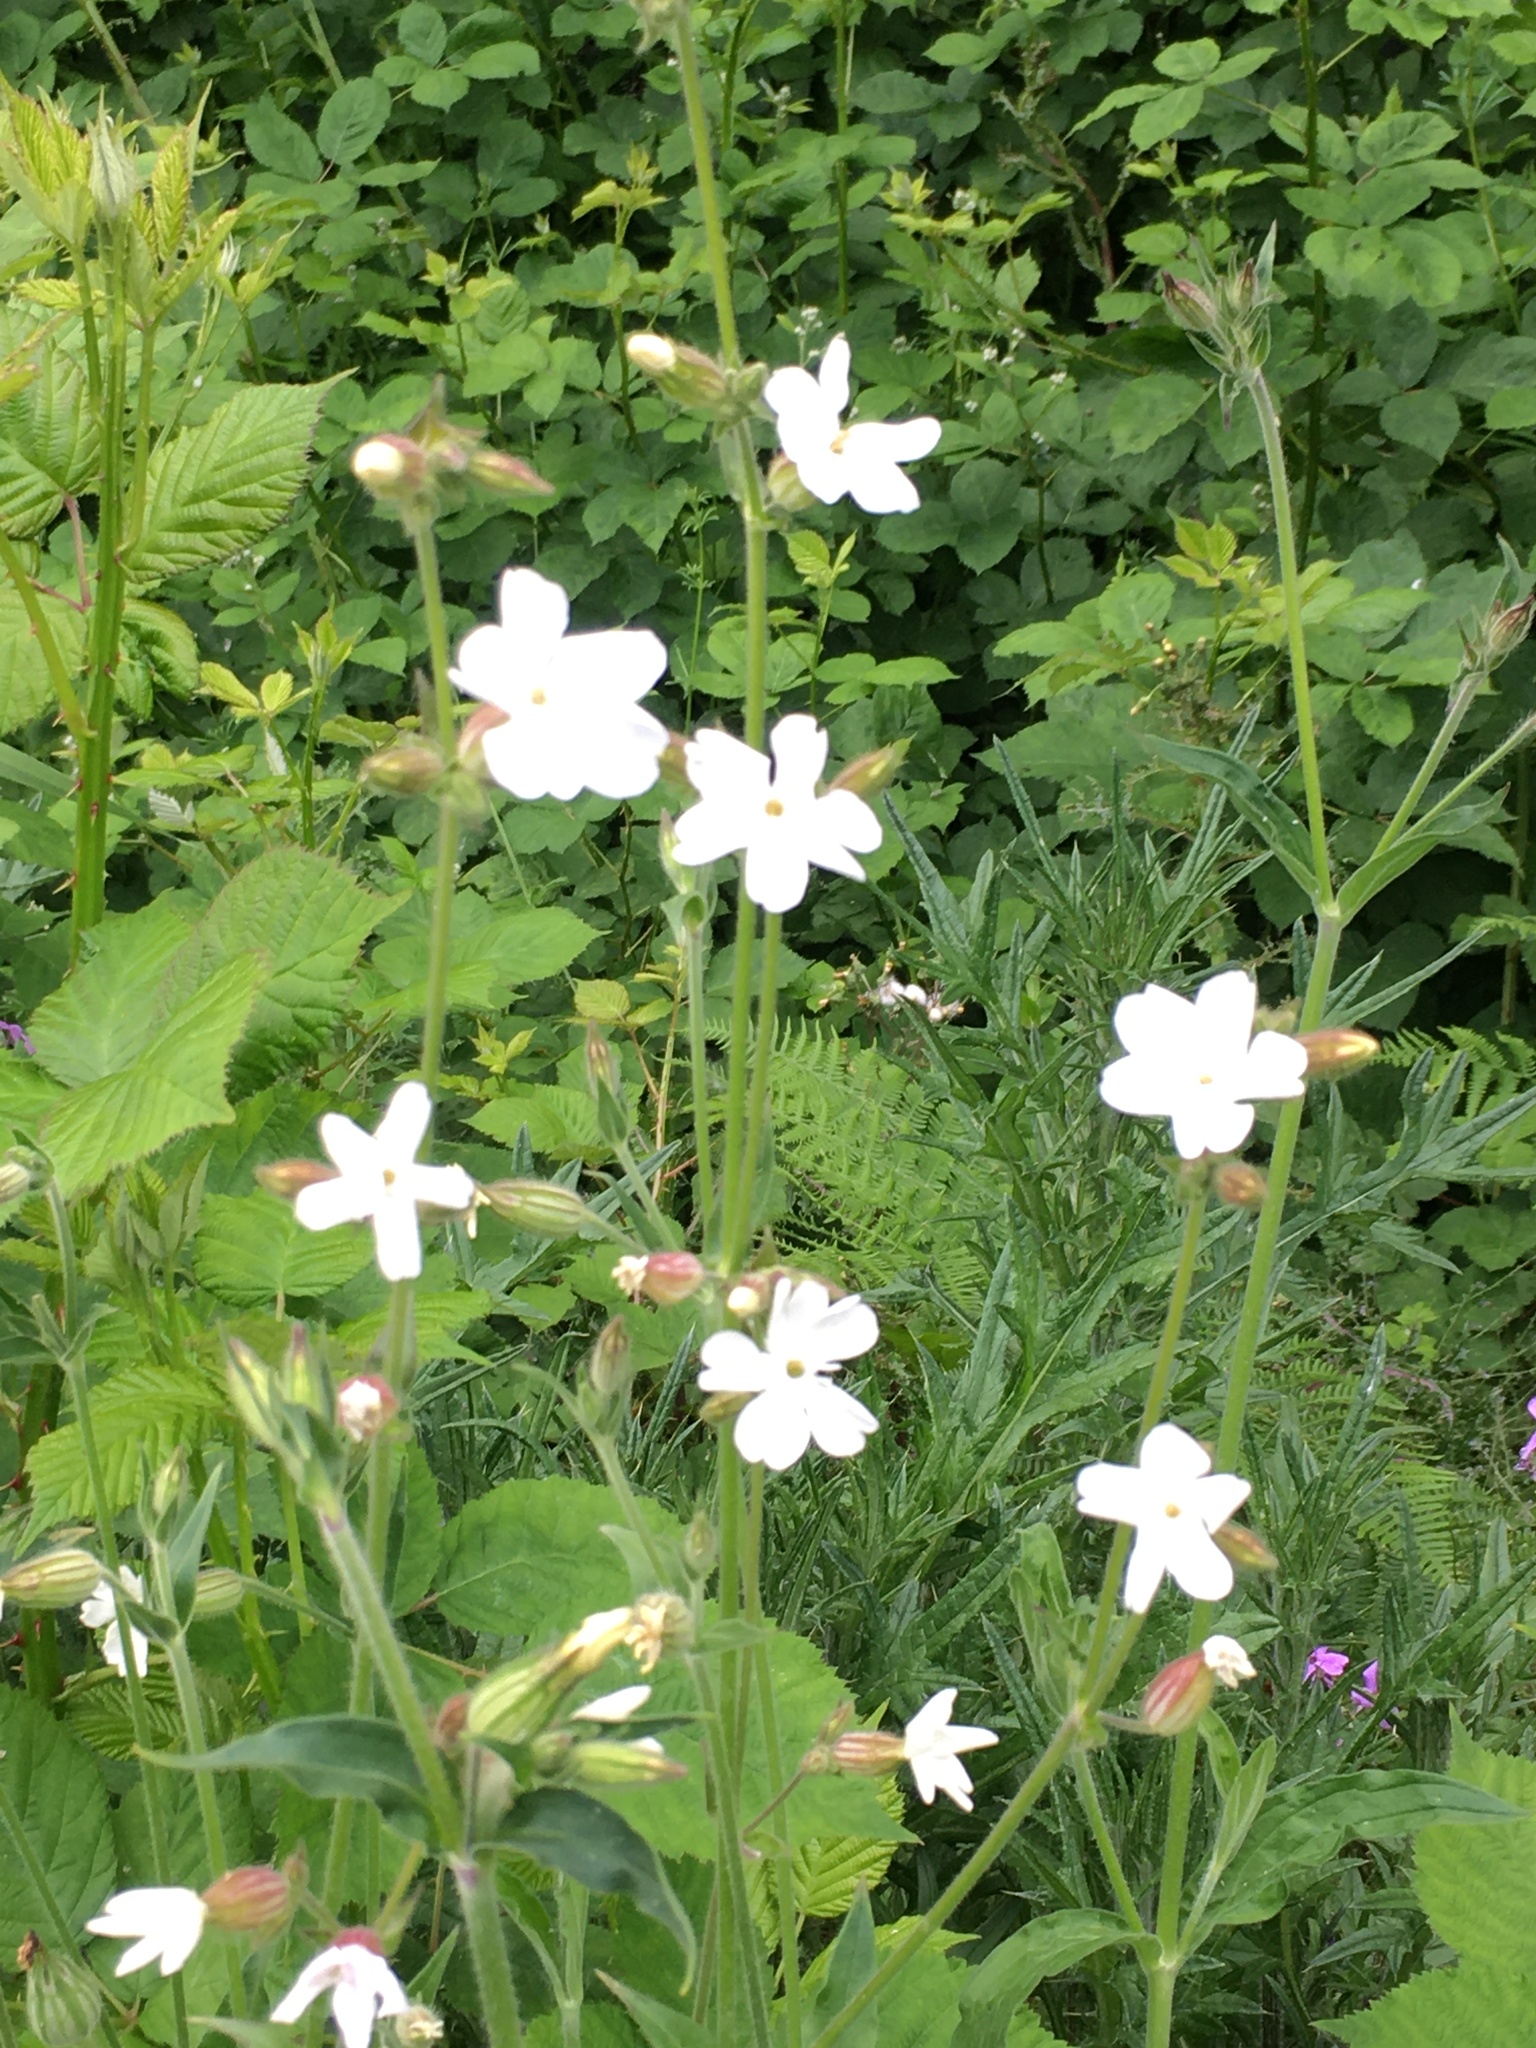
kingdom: Plantae
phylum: Tracheophyta
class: Magnoliopsida
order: Caryophyllales
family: Caryophyllaceae
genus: Silene
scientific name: Silene latifolia
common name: White campion
